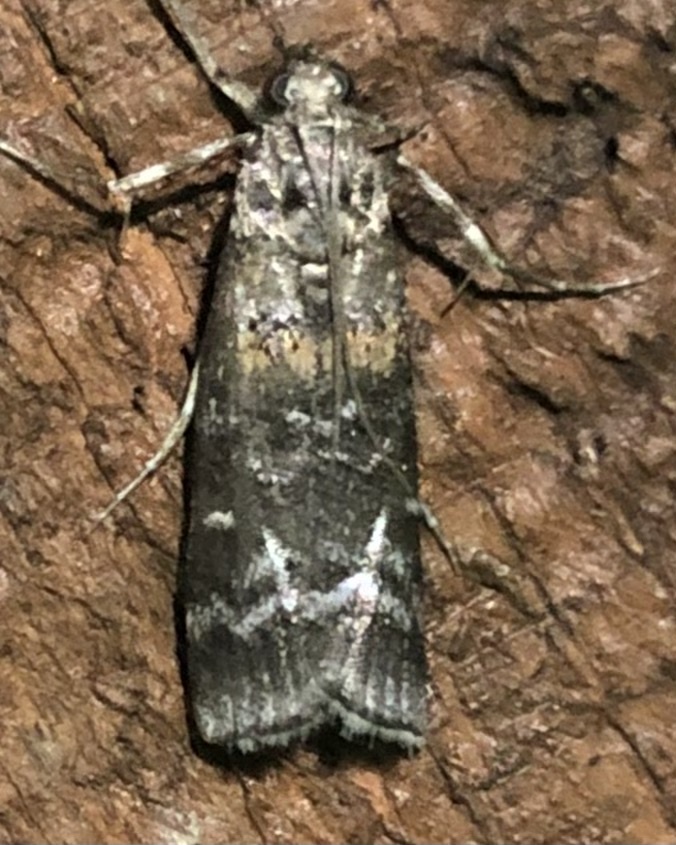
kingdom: Animalia
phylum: Arthropoda
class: Insecta
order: Lepidoptera
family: Pyralidae
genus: Dioryctria
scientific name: Dioryctria zimmermani
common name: Zimmerman pine moth
